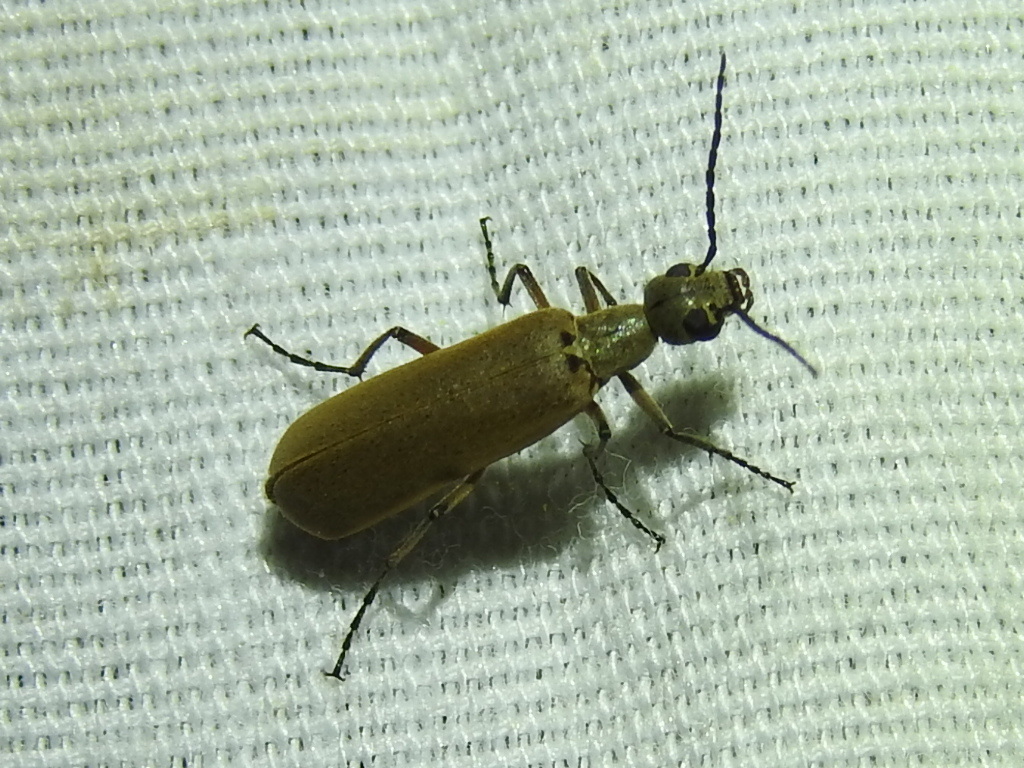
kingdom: Animalia
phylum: Arthropoda
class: Insecta
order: Coleoptera
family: Meloidae
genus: Epicauta
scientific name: Epicauta polingi
